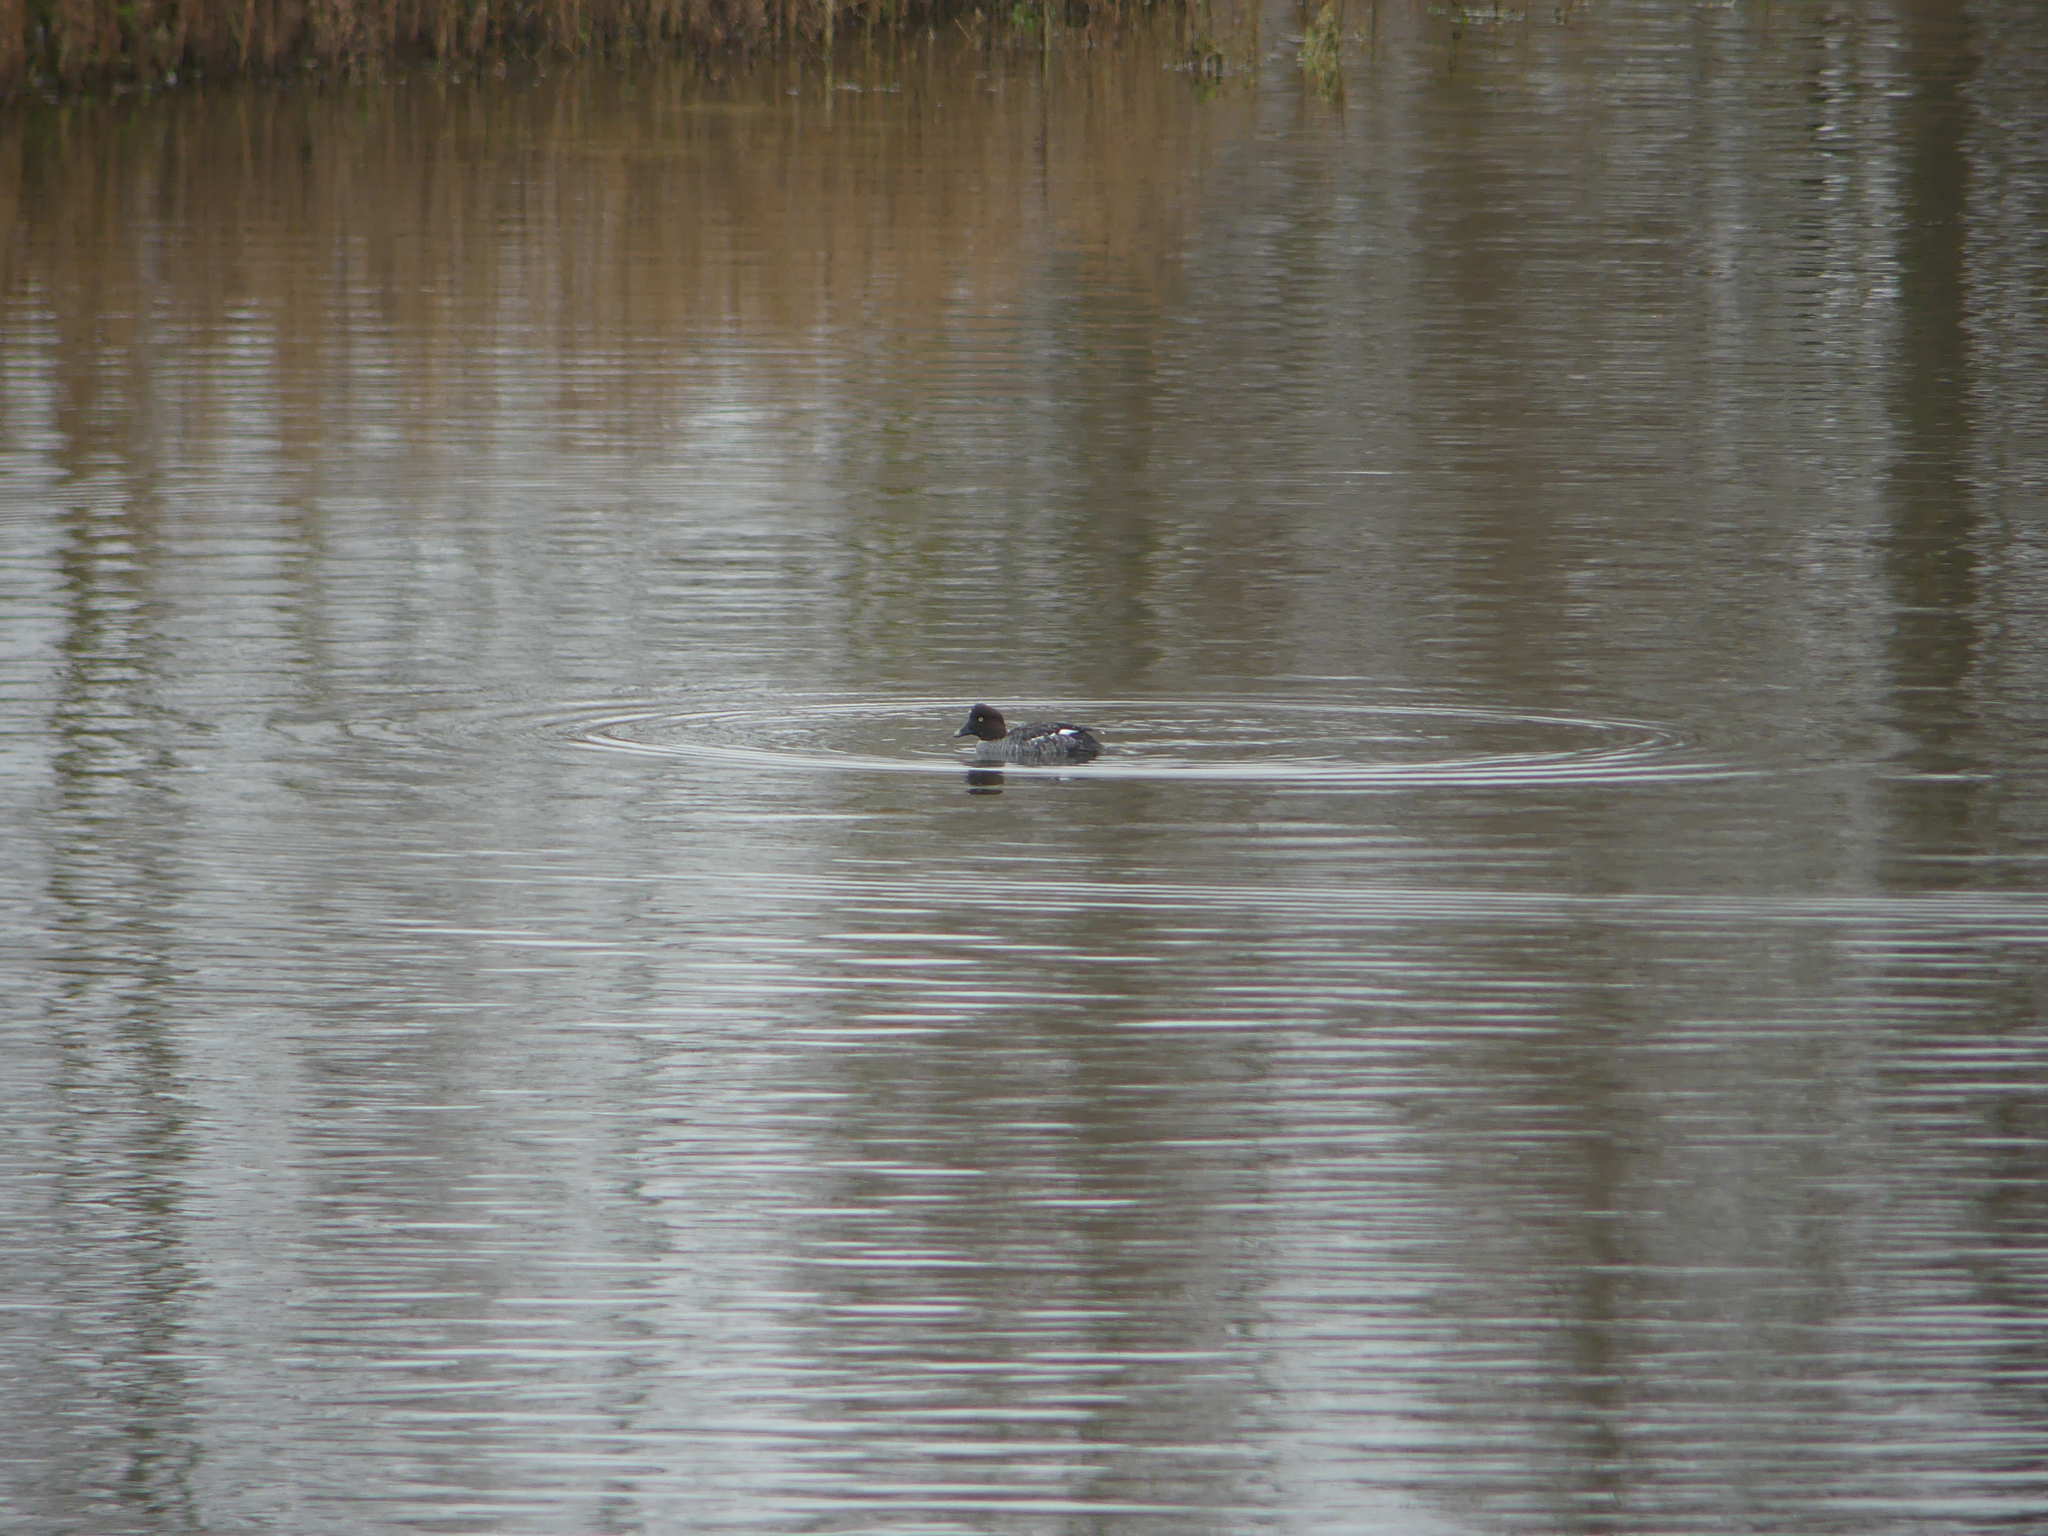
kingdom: Animalia
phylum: Chordata
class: Aves
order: Anseriformes
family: Anatidae
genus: Bucephala
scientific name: Bucephala clangula
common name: Common goldeneye
